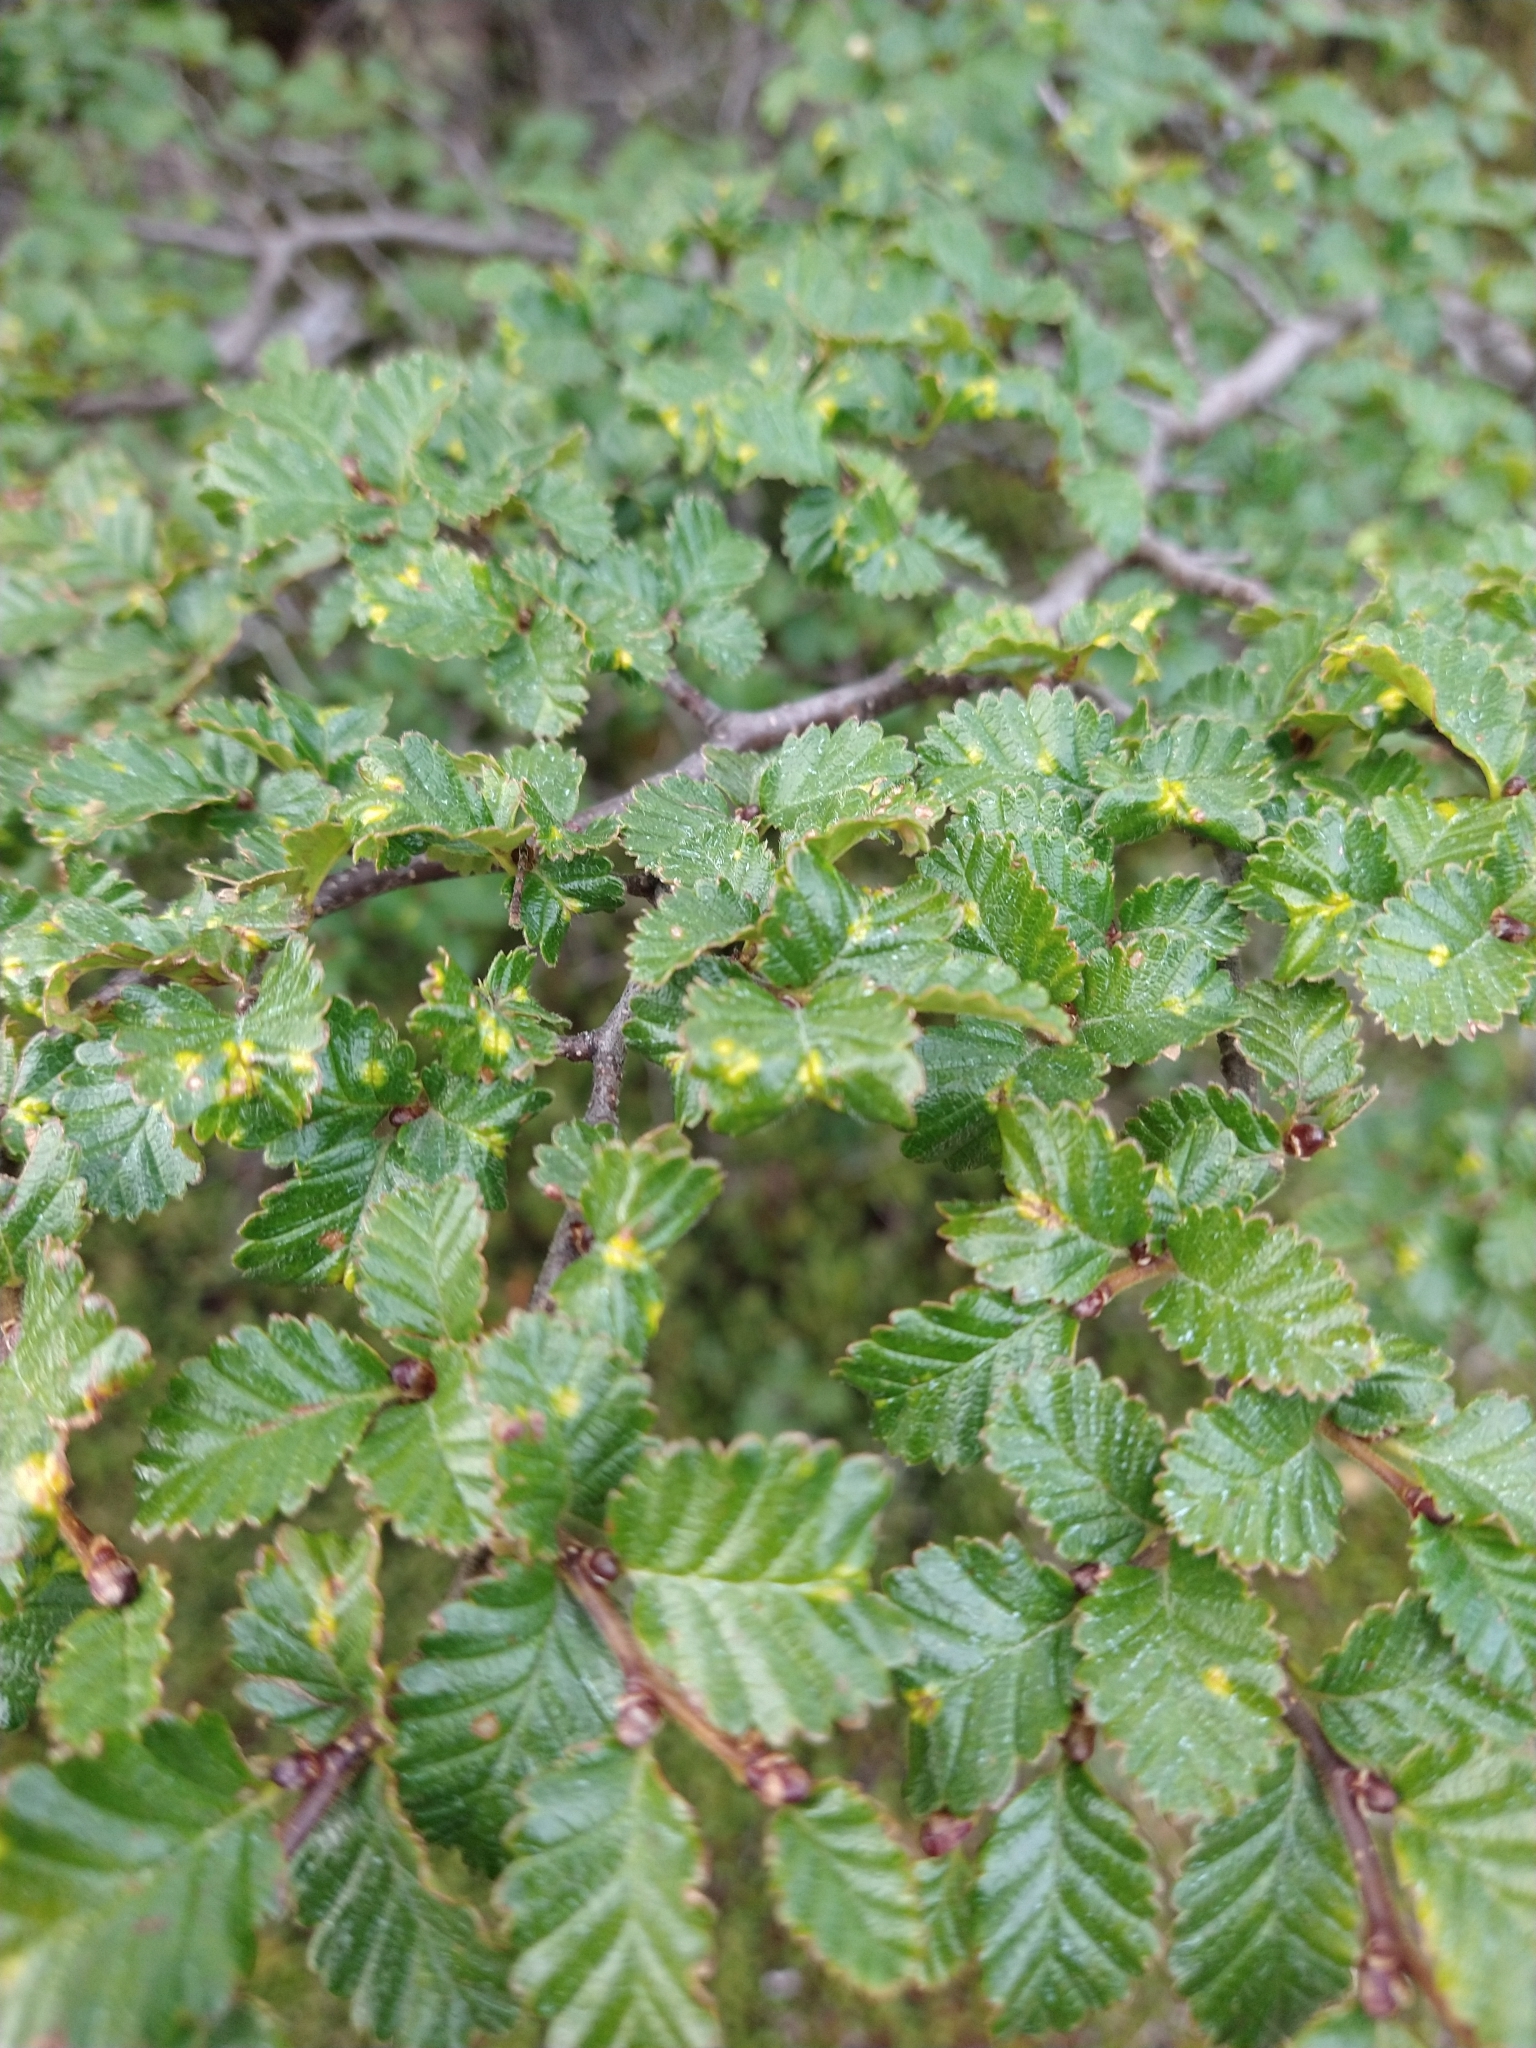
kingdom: Plantae
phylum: Tracheophyta
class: Magnoliopsida
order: Fagales
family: Nothofagaceae
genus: Nothofagus
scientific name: Nothofagus pumilio
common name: Lenga beech
